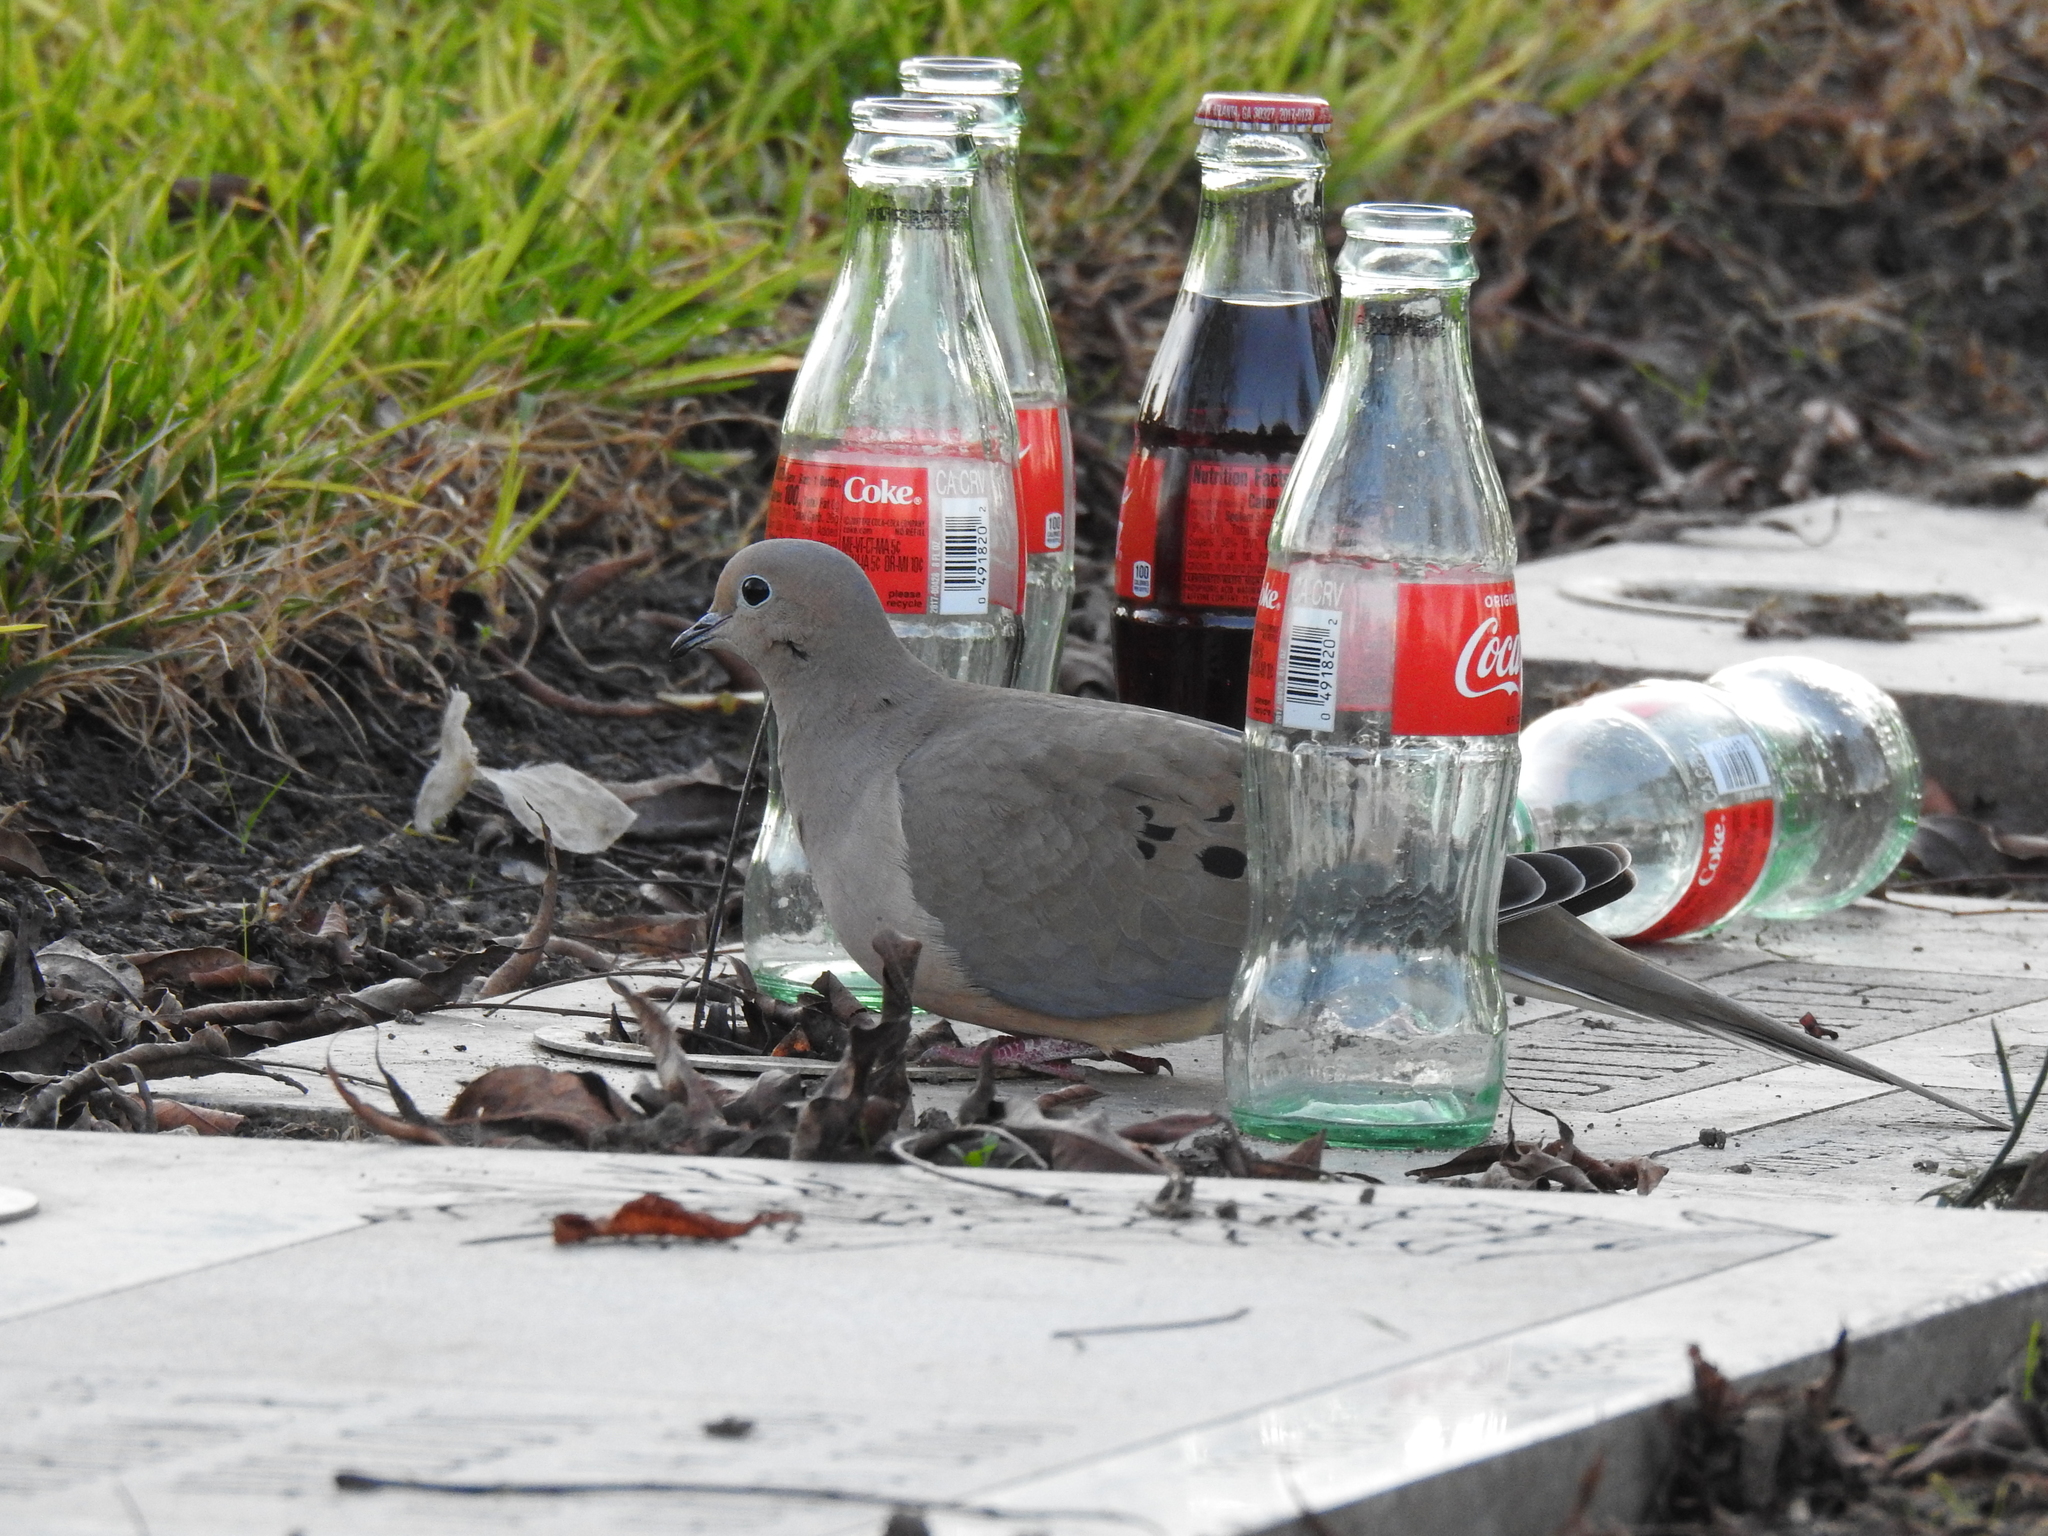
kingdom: Animalia
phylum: Chordata
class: Aves
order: Columbiformes
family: Columbidae
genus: Zenaida
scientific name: Zenaida macroura
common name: Mourning dove
